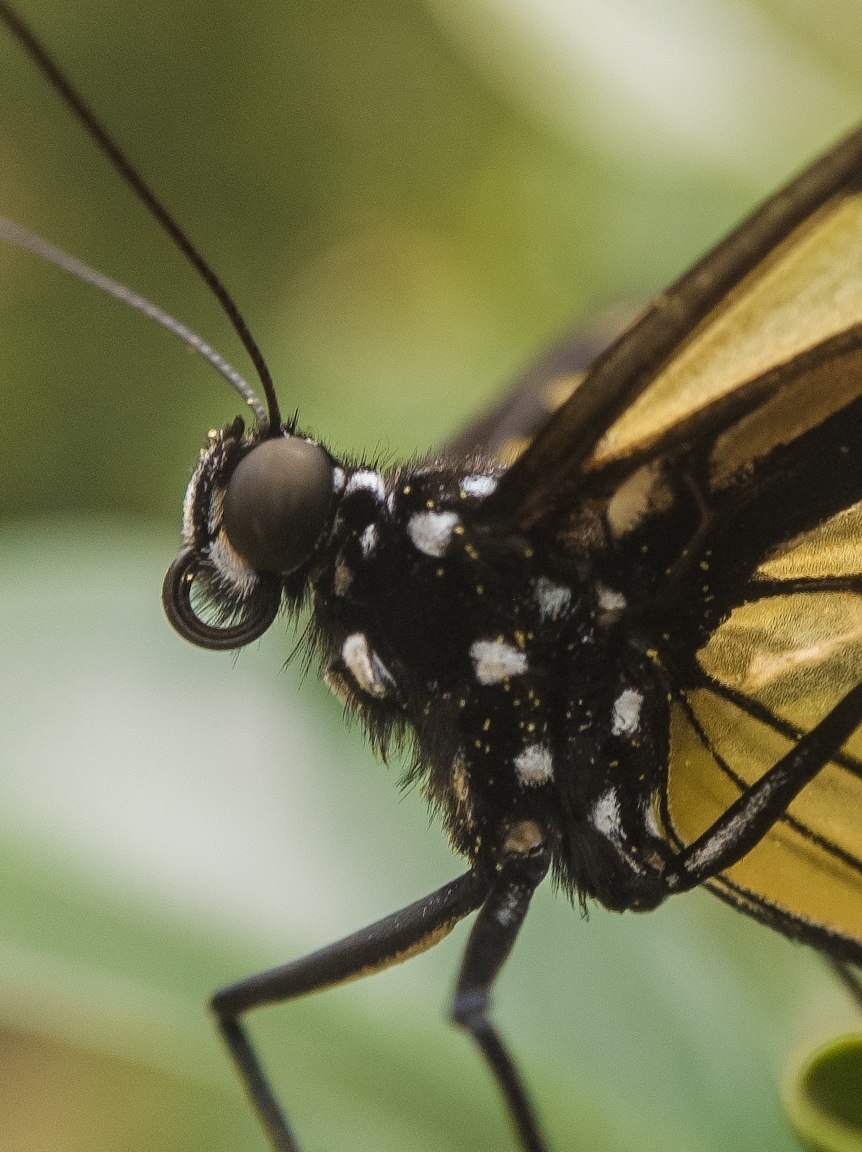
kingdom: Animalia
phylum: Arthropoda
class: Insecta
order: Lepidoptera
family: Nymphalidae
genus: Methona
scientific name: Methona themisto
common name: Themisto amberwing
